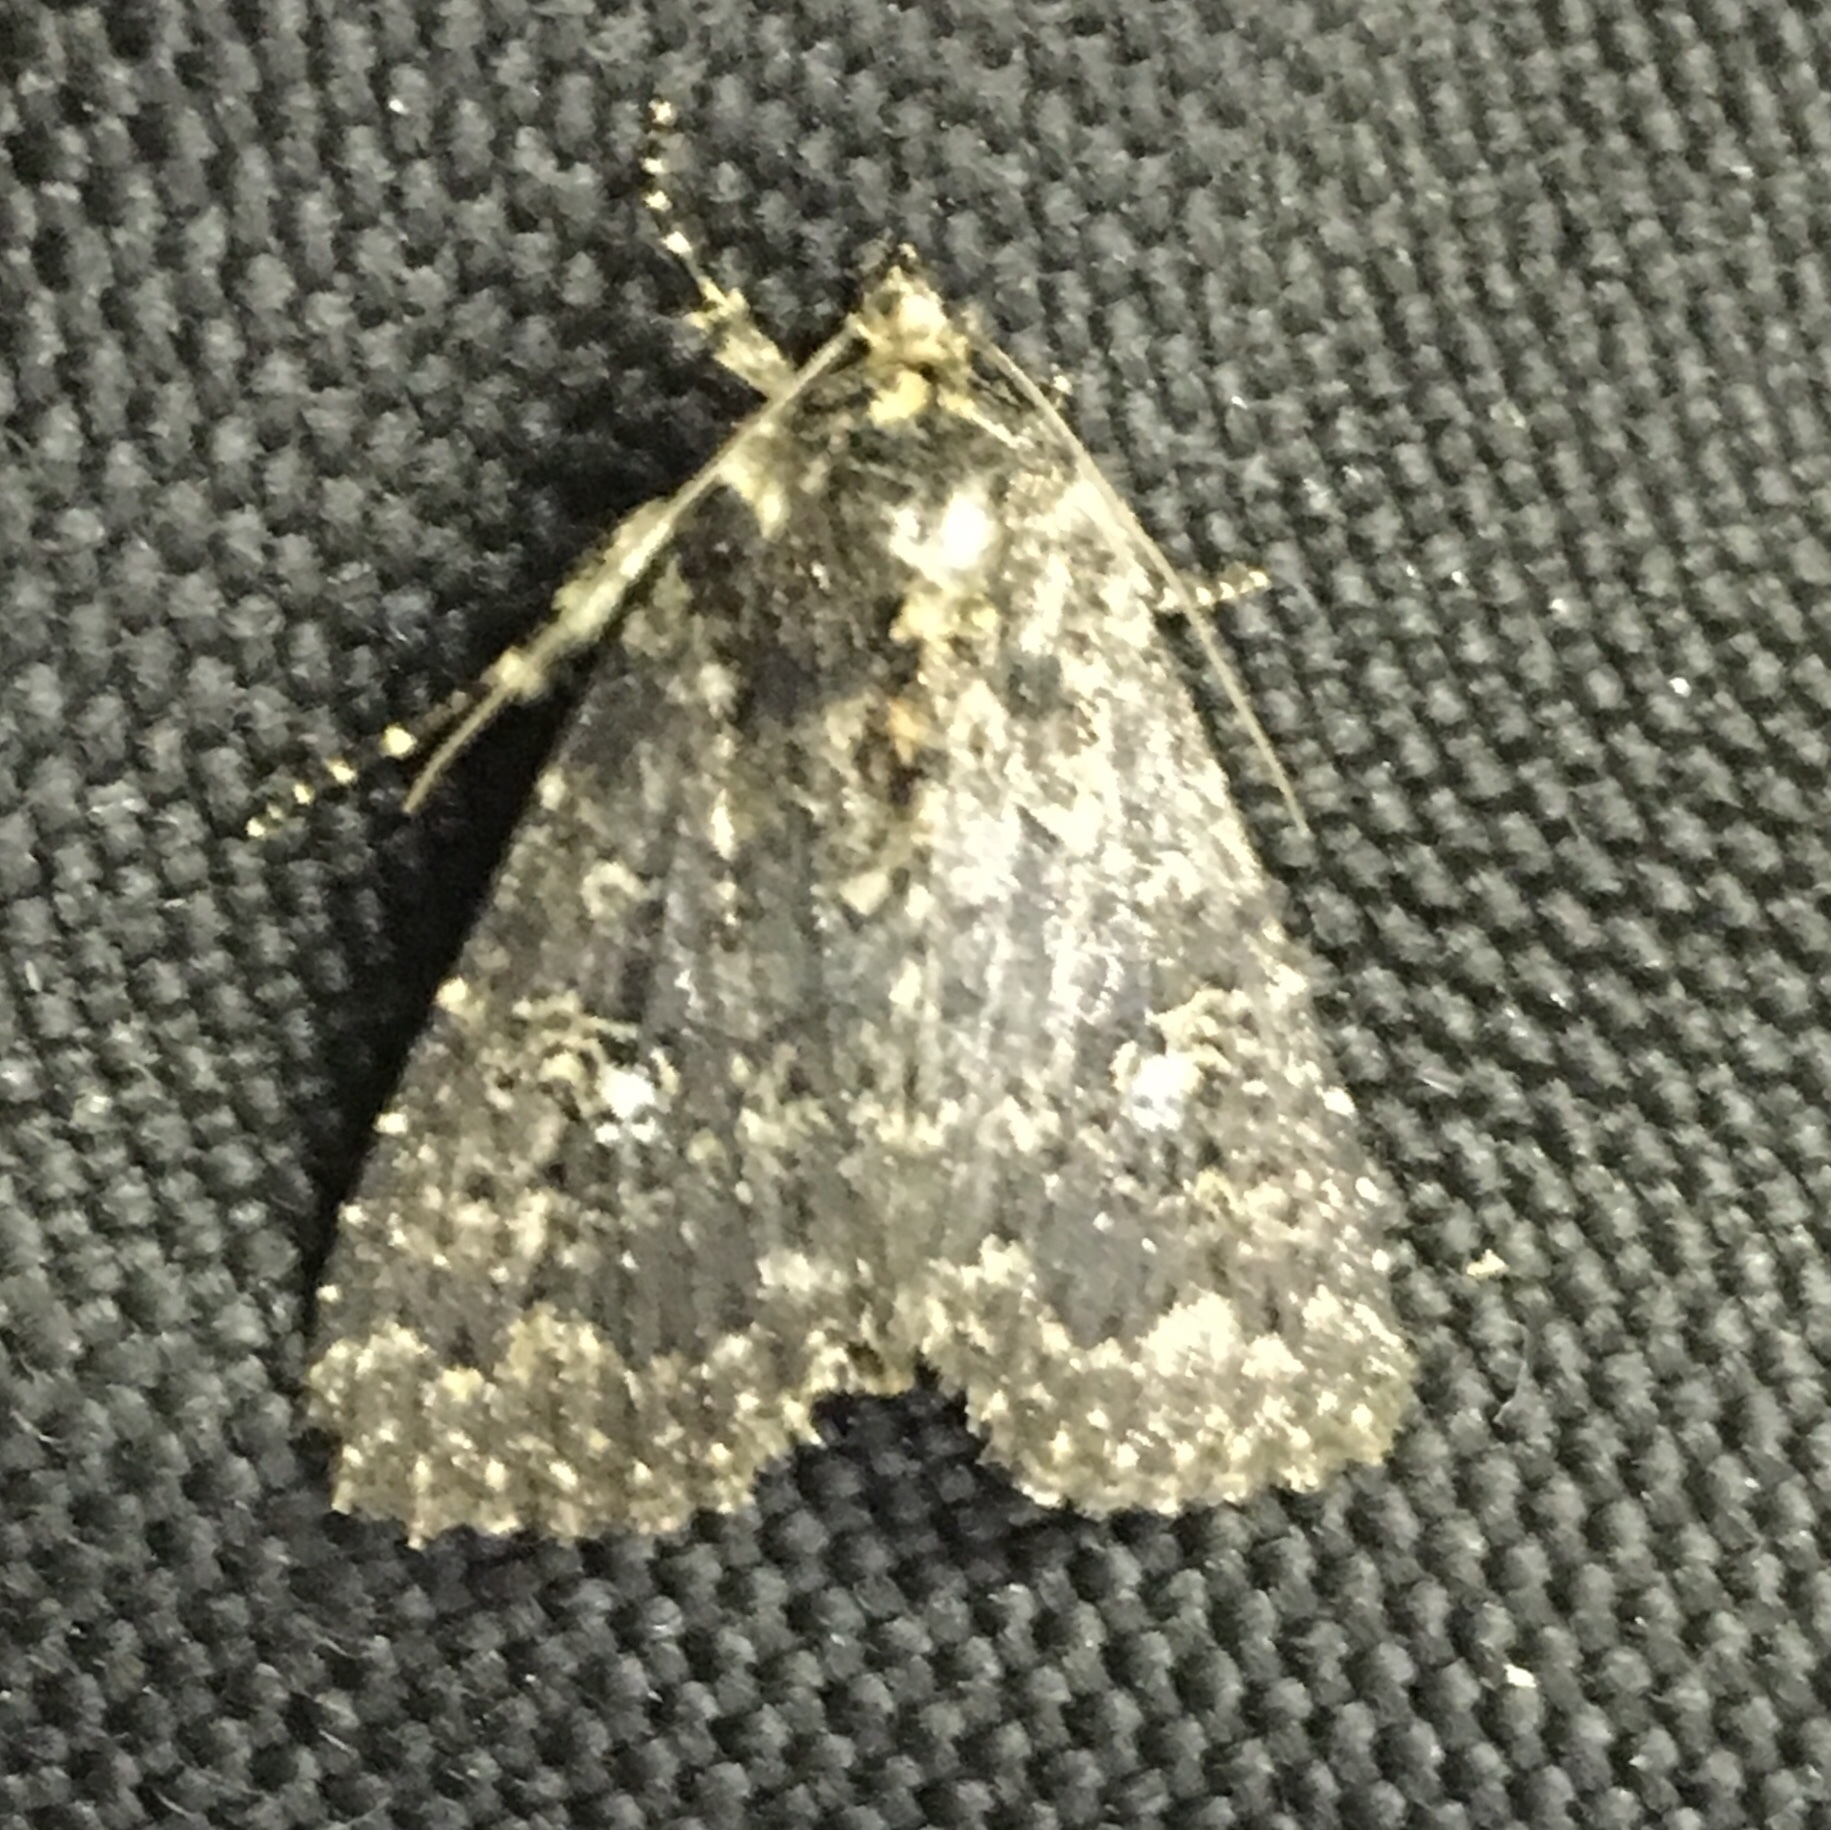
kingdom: Animalia
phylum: Arthropoda
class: Insecta
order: Lepidoptera
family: Noctuidae
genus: Condica
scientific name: Condica vecors
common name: Dusky groundling
